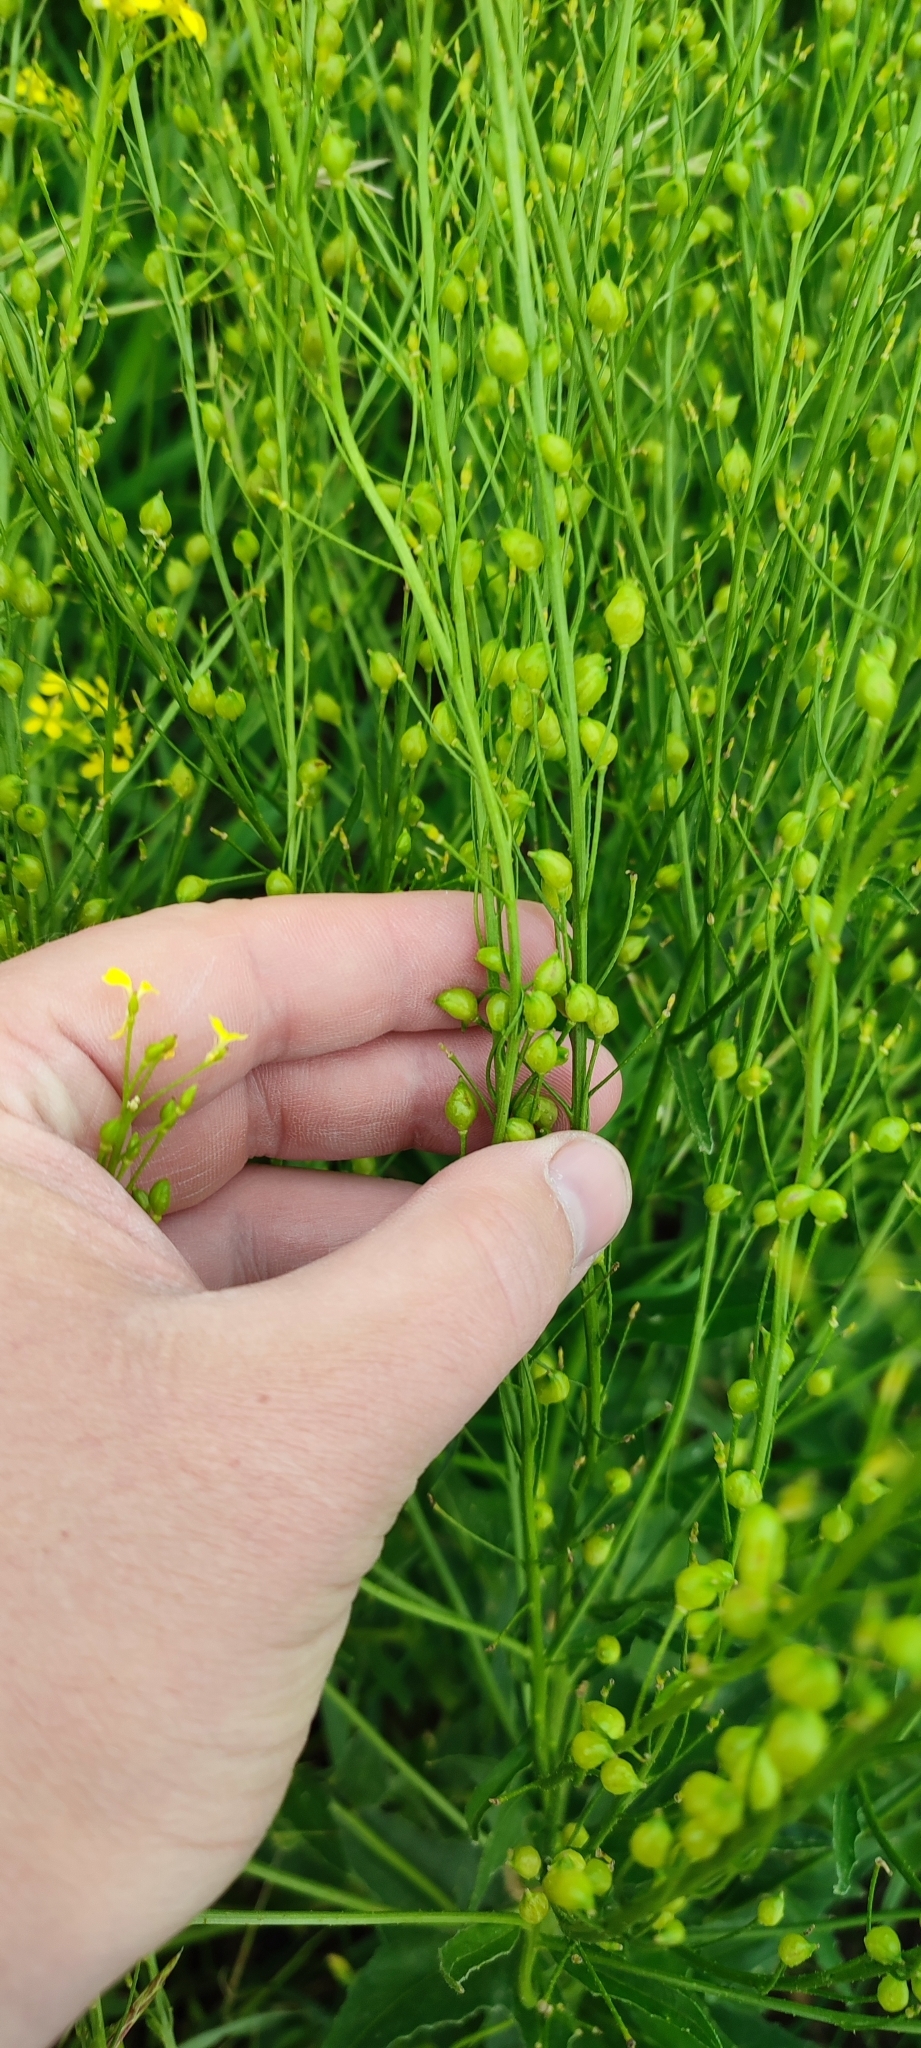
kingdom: Plantae
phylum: Tracheophyta
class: Magnoliopsida
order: Brassicales
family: Brassicaceae
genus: Bunias
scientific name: Bunias orientalis
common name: Warty-cabbage
